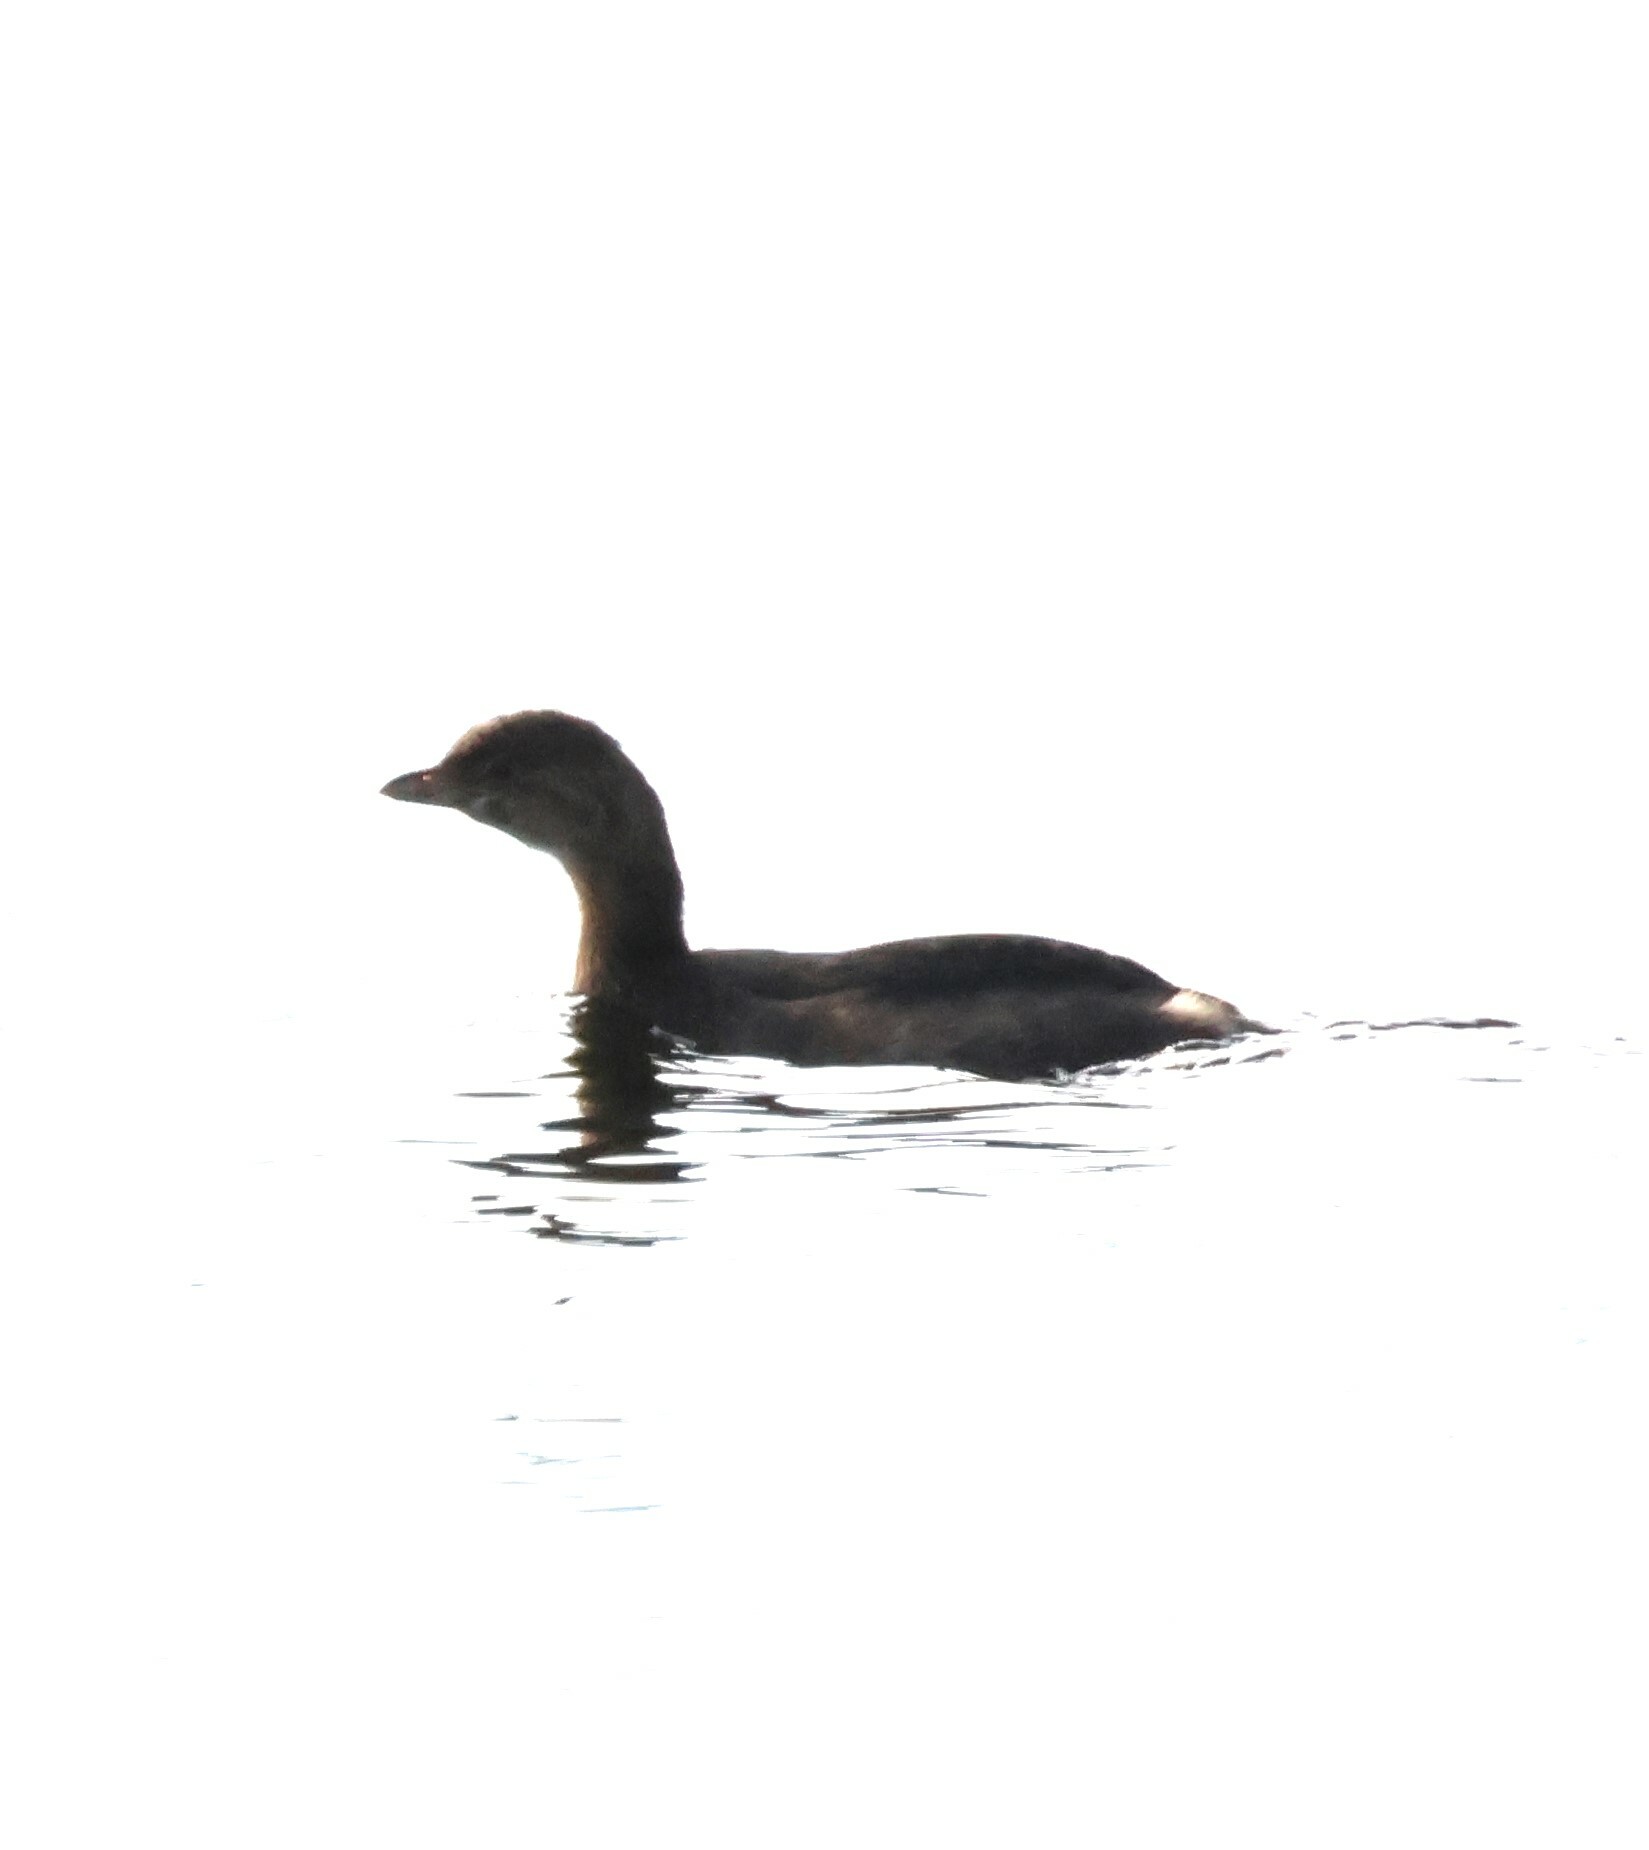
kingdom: Animalia
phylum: Chordata
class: Aves
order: Podicipediformes
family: Podicipedidae
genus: Podilymbus
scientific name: Podilymbus podiceps
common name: Pied-billed grebe
